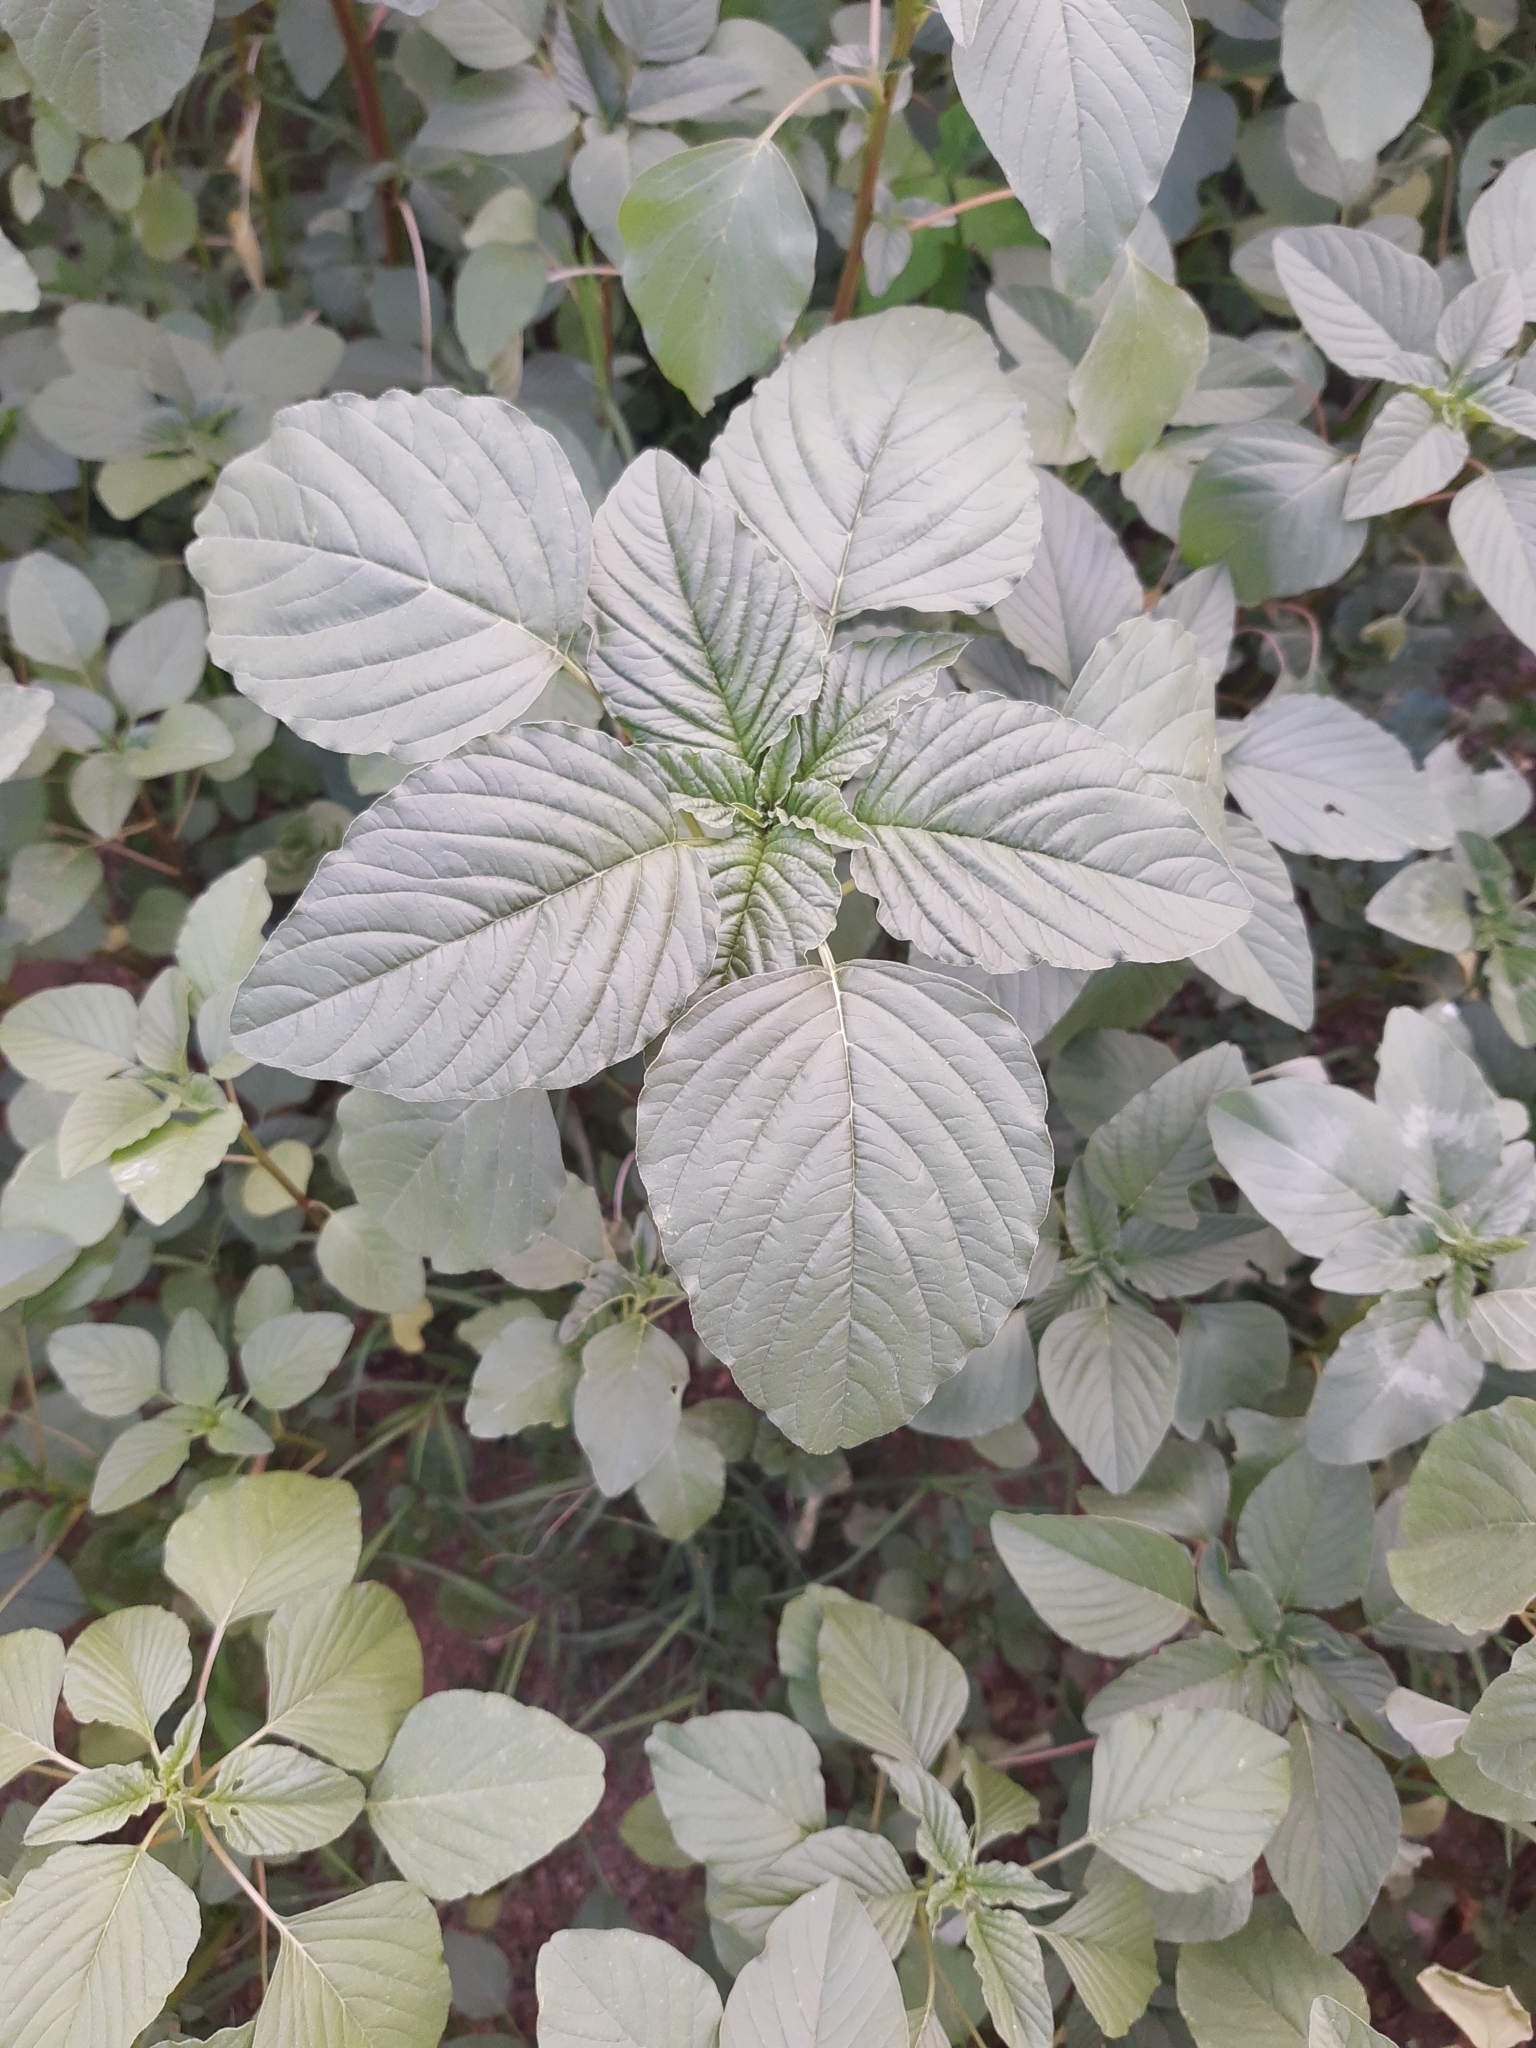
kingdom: Plantae
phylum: Tracheophyta
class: Magnoliopsida
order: Caryophyllales
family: Amaranthaceae
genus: Amaranthus
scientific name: Amaranthus palmeri
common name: Dioecious amaranth
